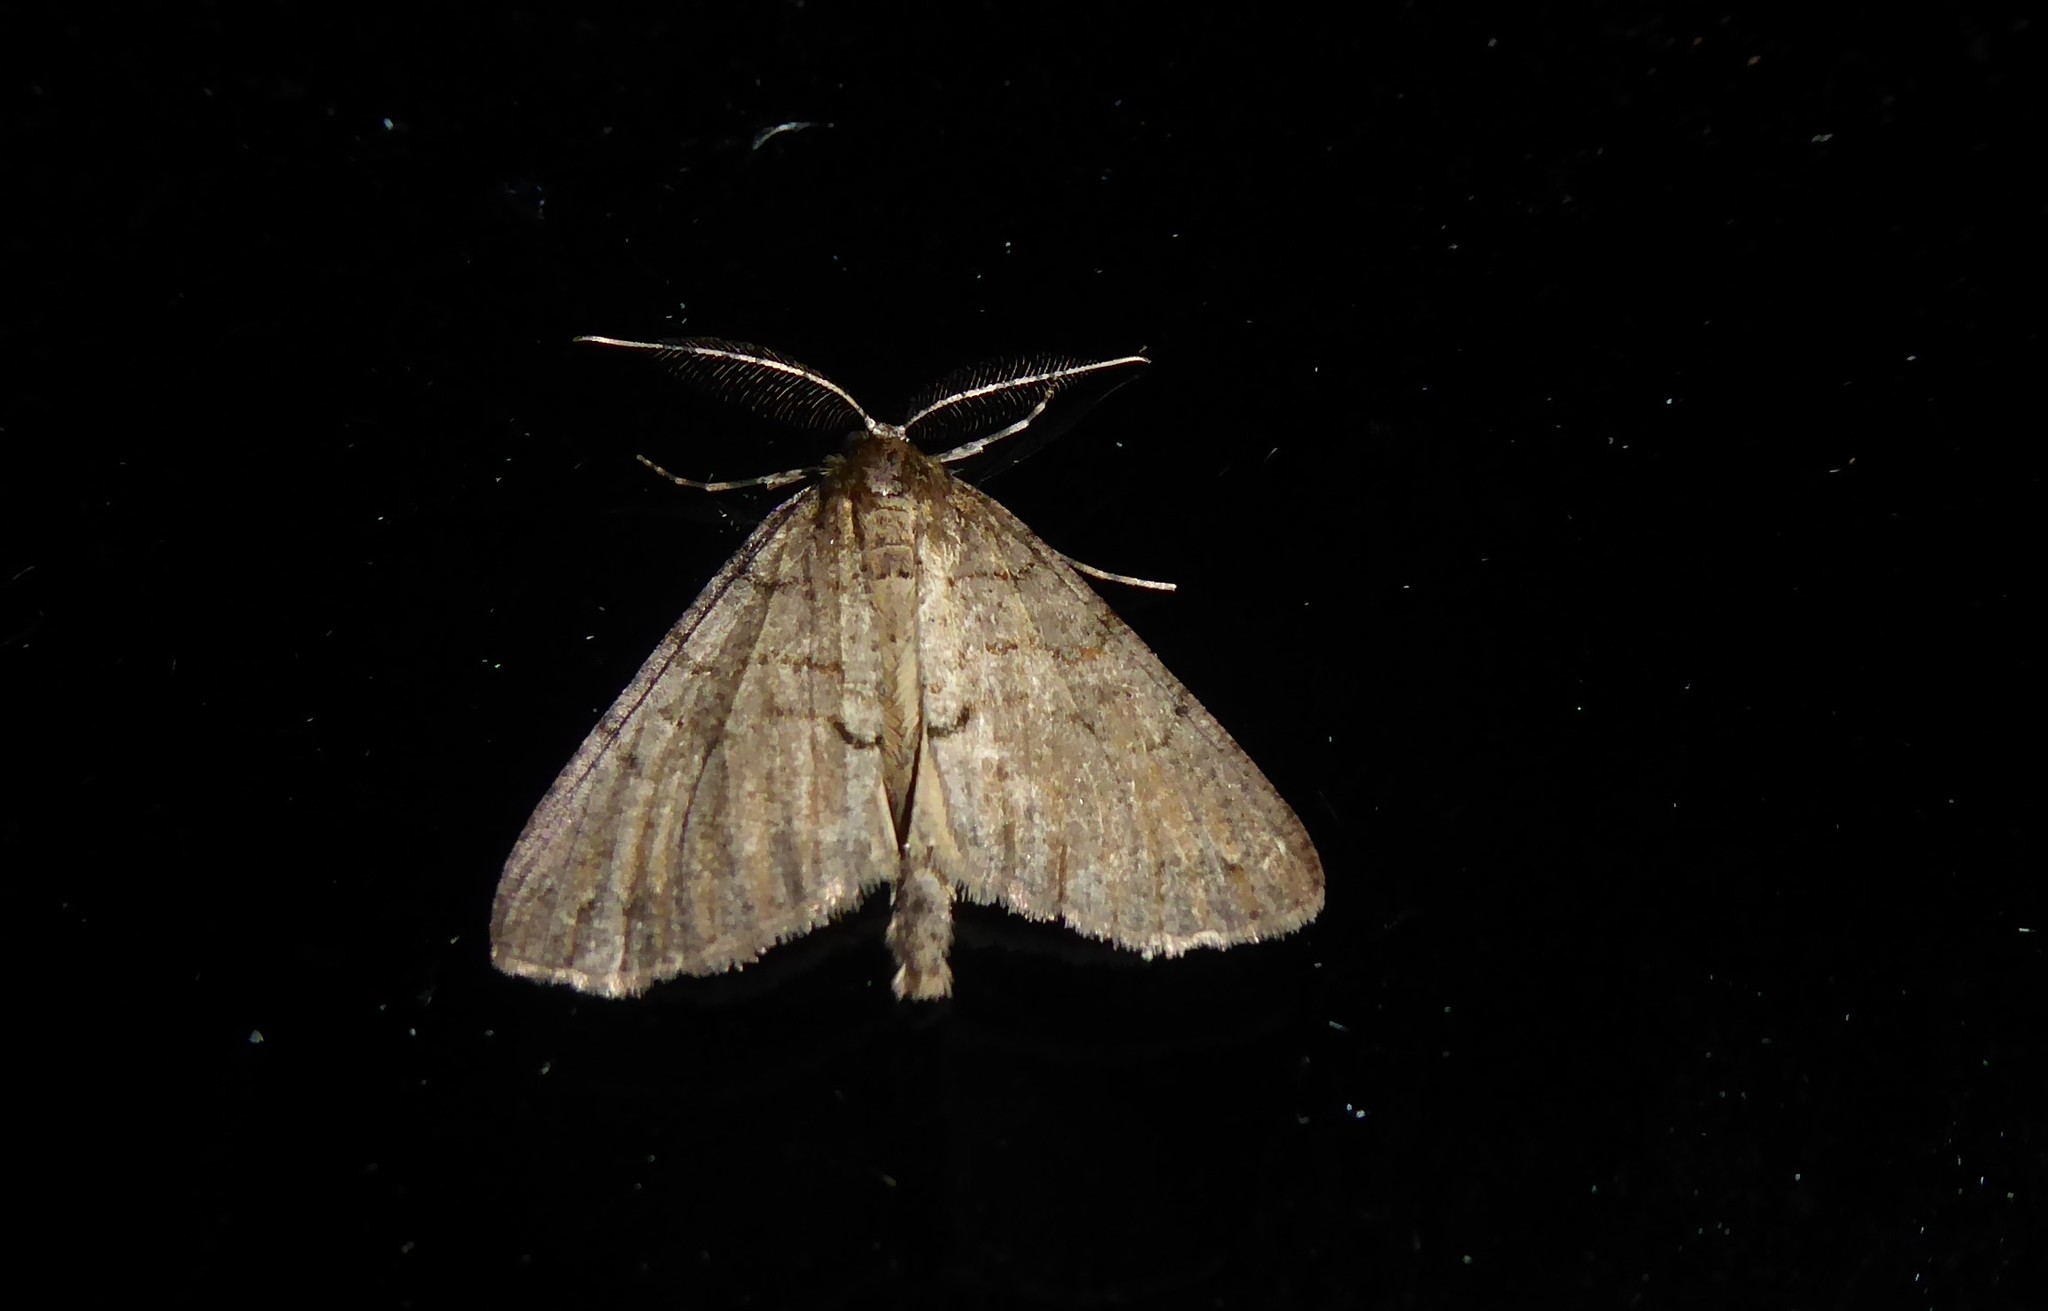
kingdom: Animalia
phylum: Arthropoda
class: Insecta
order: Lepidoptera
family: Geometridae
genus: Pseudocoremia
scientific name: Pseudocoremia suavis
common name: Common forest looper
